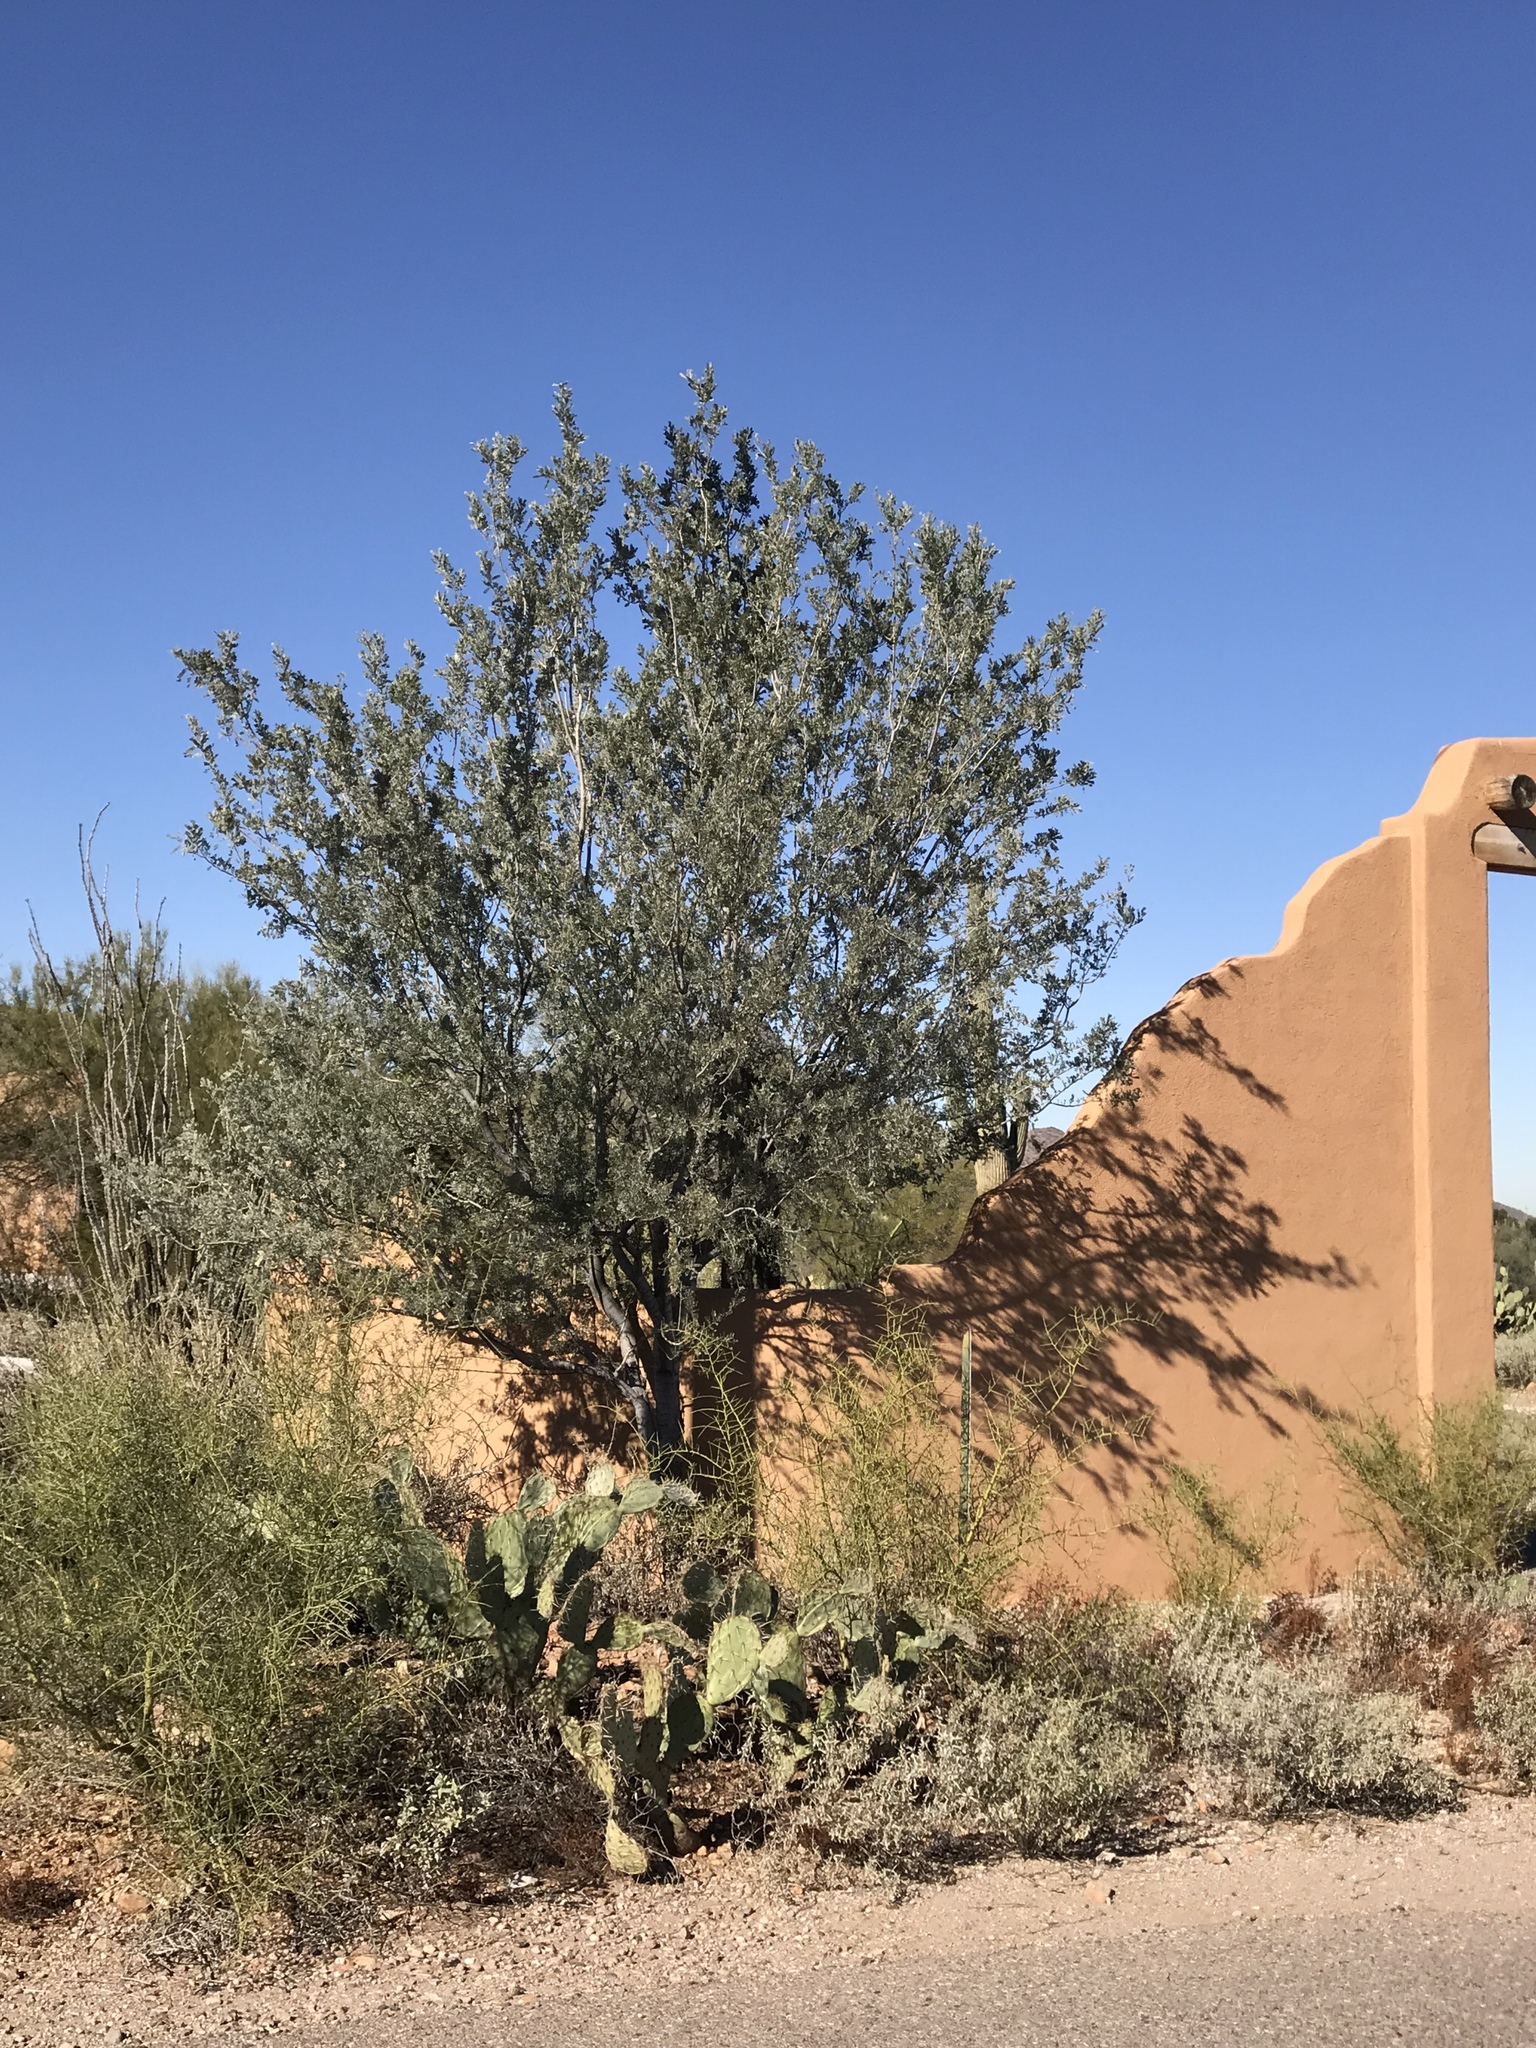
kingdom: Plantae
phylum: Tracheophyta
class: Magnoliopsida
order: Fabales
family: Fabaceae
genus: Olneya
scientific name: Olneya tesota
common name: Desert ironwood
